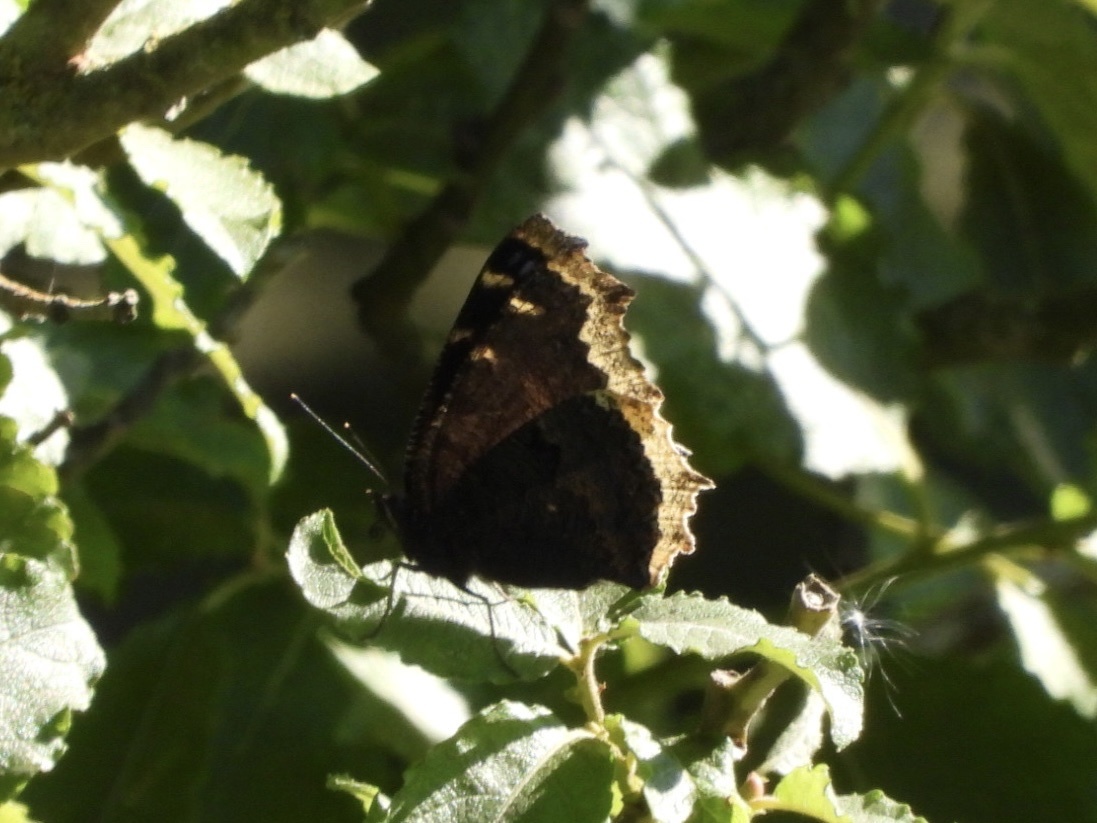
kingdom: Animalia
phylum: Arthropoda
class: Insecta
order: Lepidoptera
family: Nymphalidae
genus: Nymphalis
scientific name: Nymphalis antiopa
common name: Camberwell beauty
